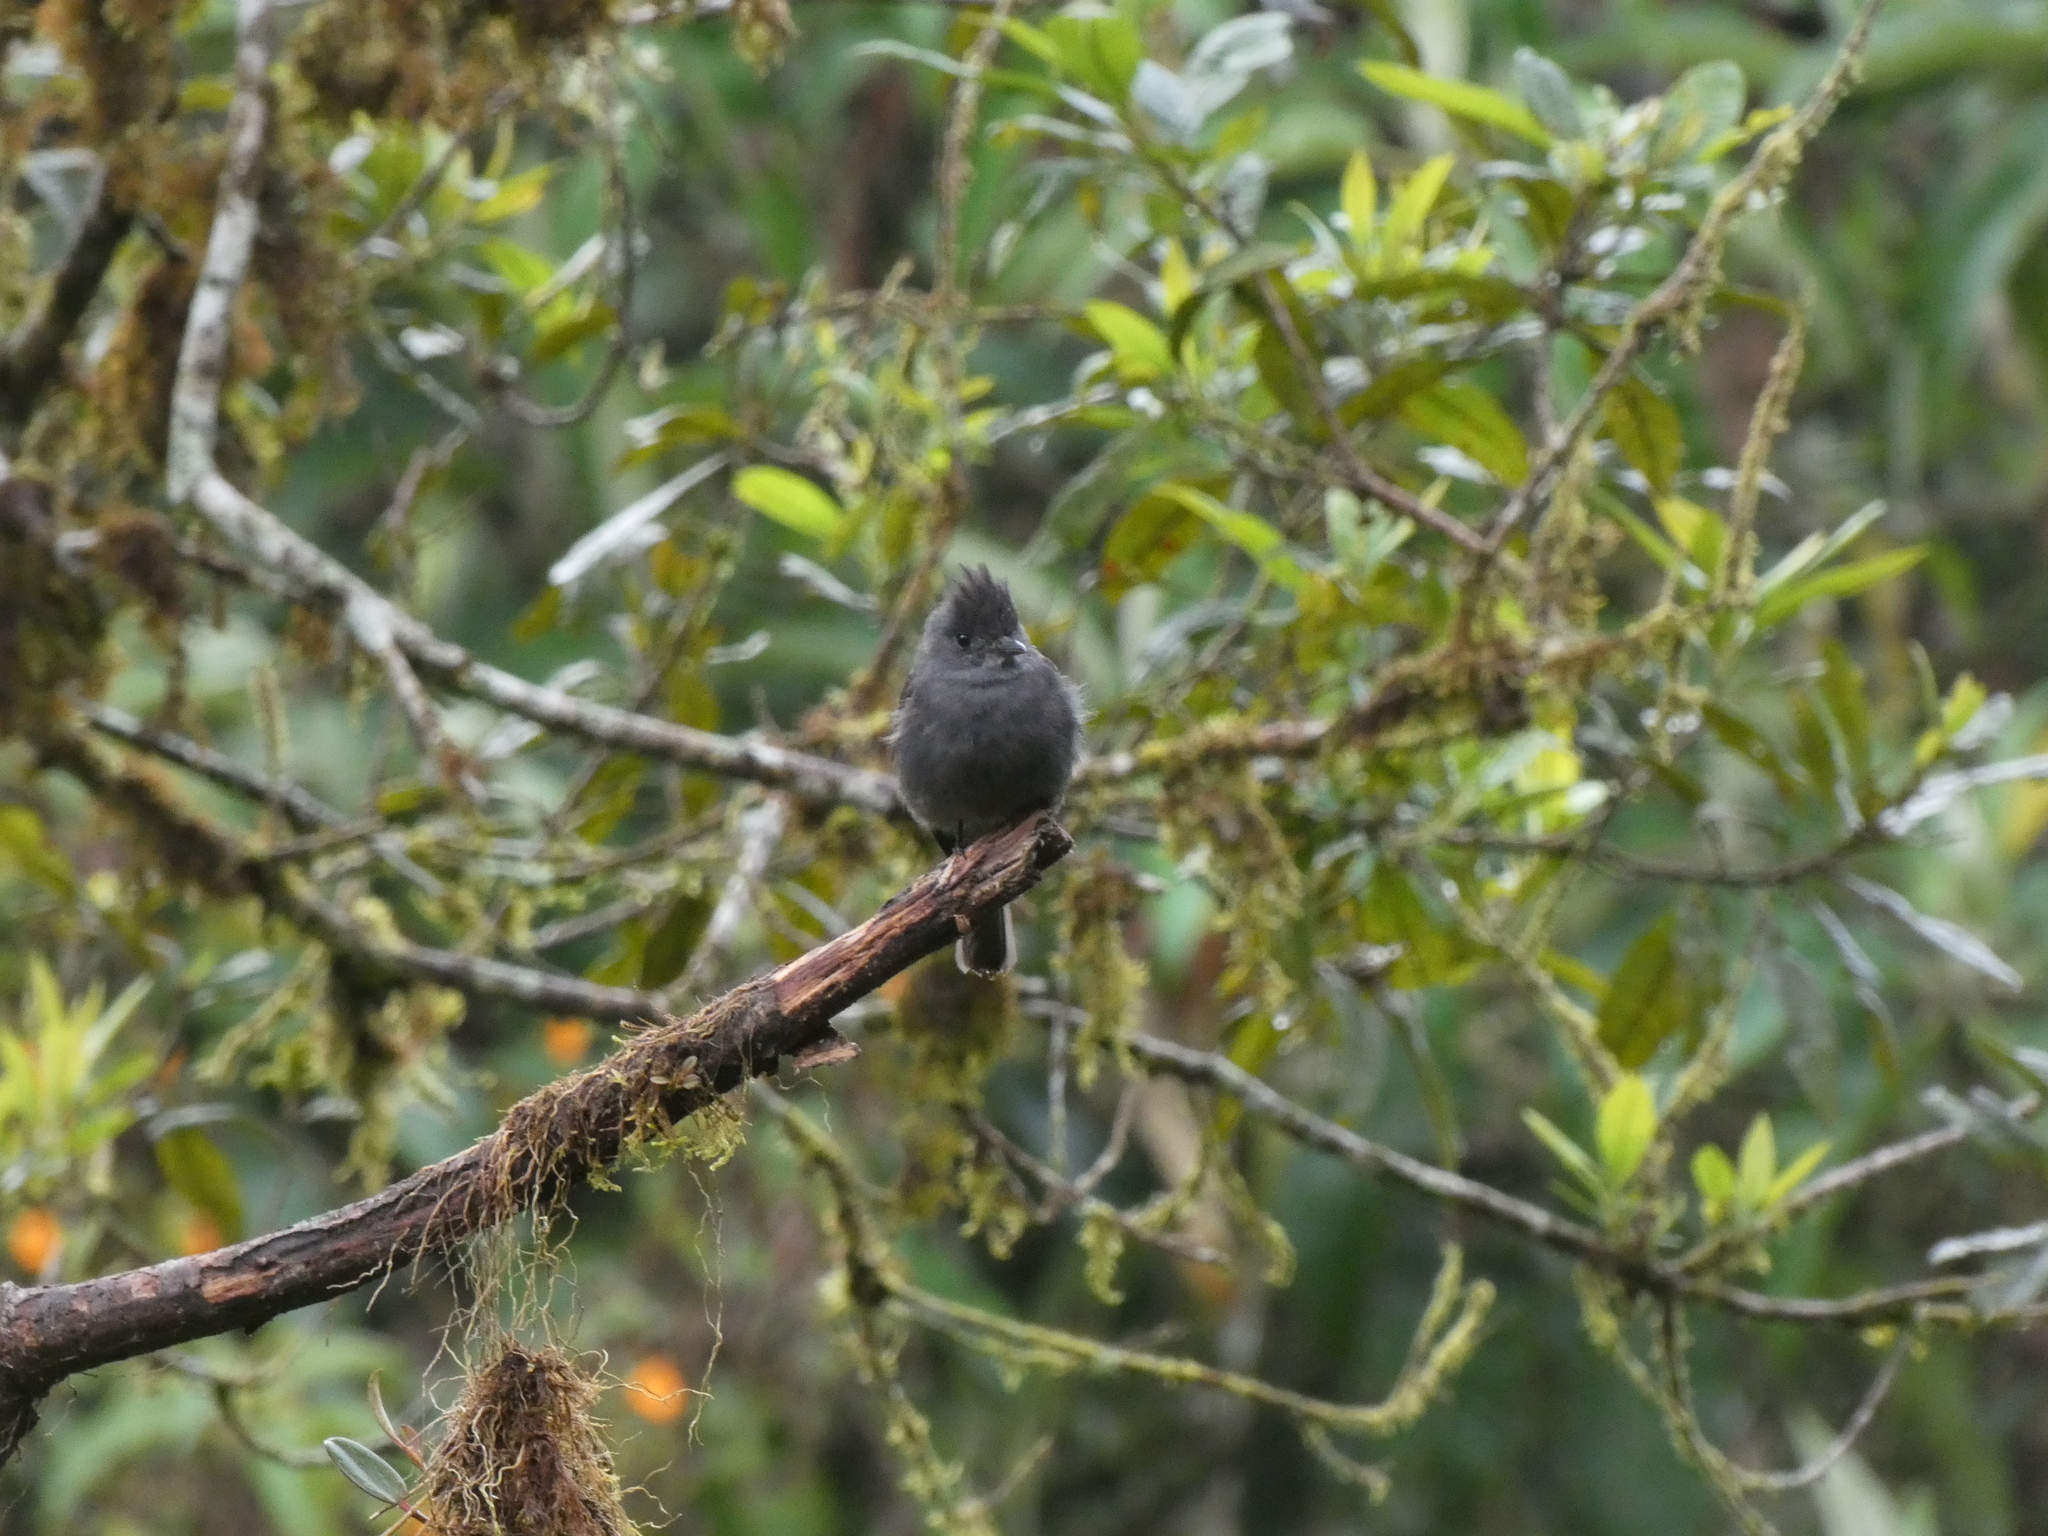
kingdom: Animalia
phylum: Chordata
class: Aves
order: Passeriformes
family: Tyrannidae
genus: Contopus
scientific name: Contopus fumigatus
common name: Smoke-colored pewee
